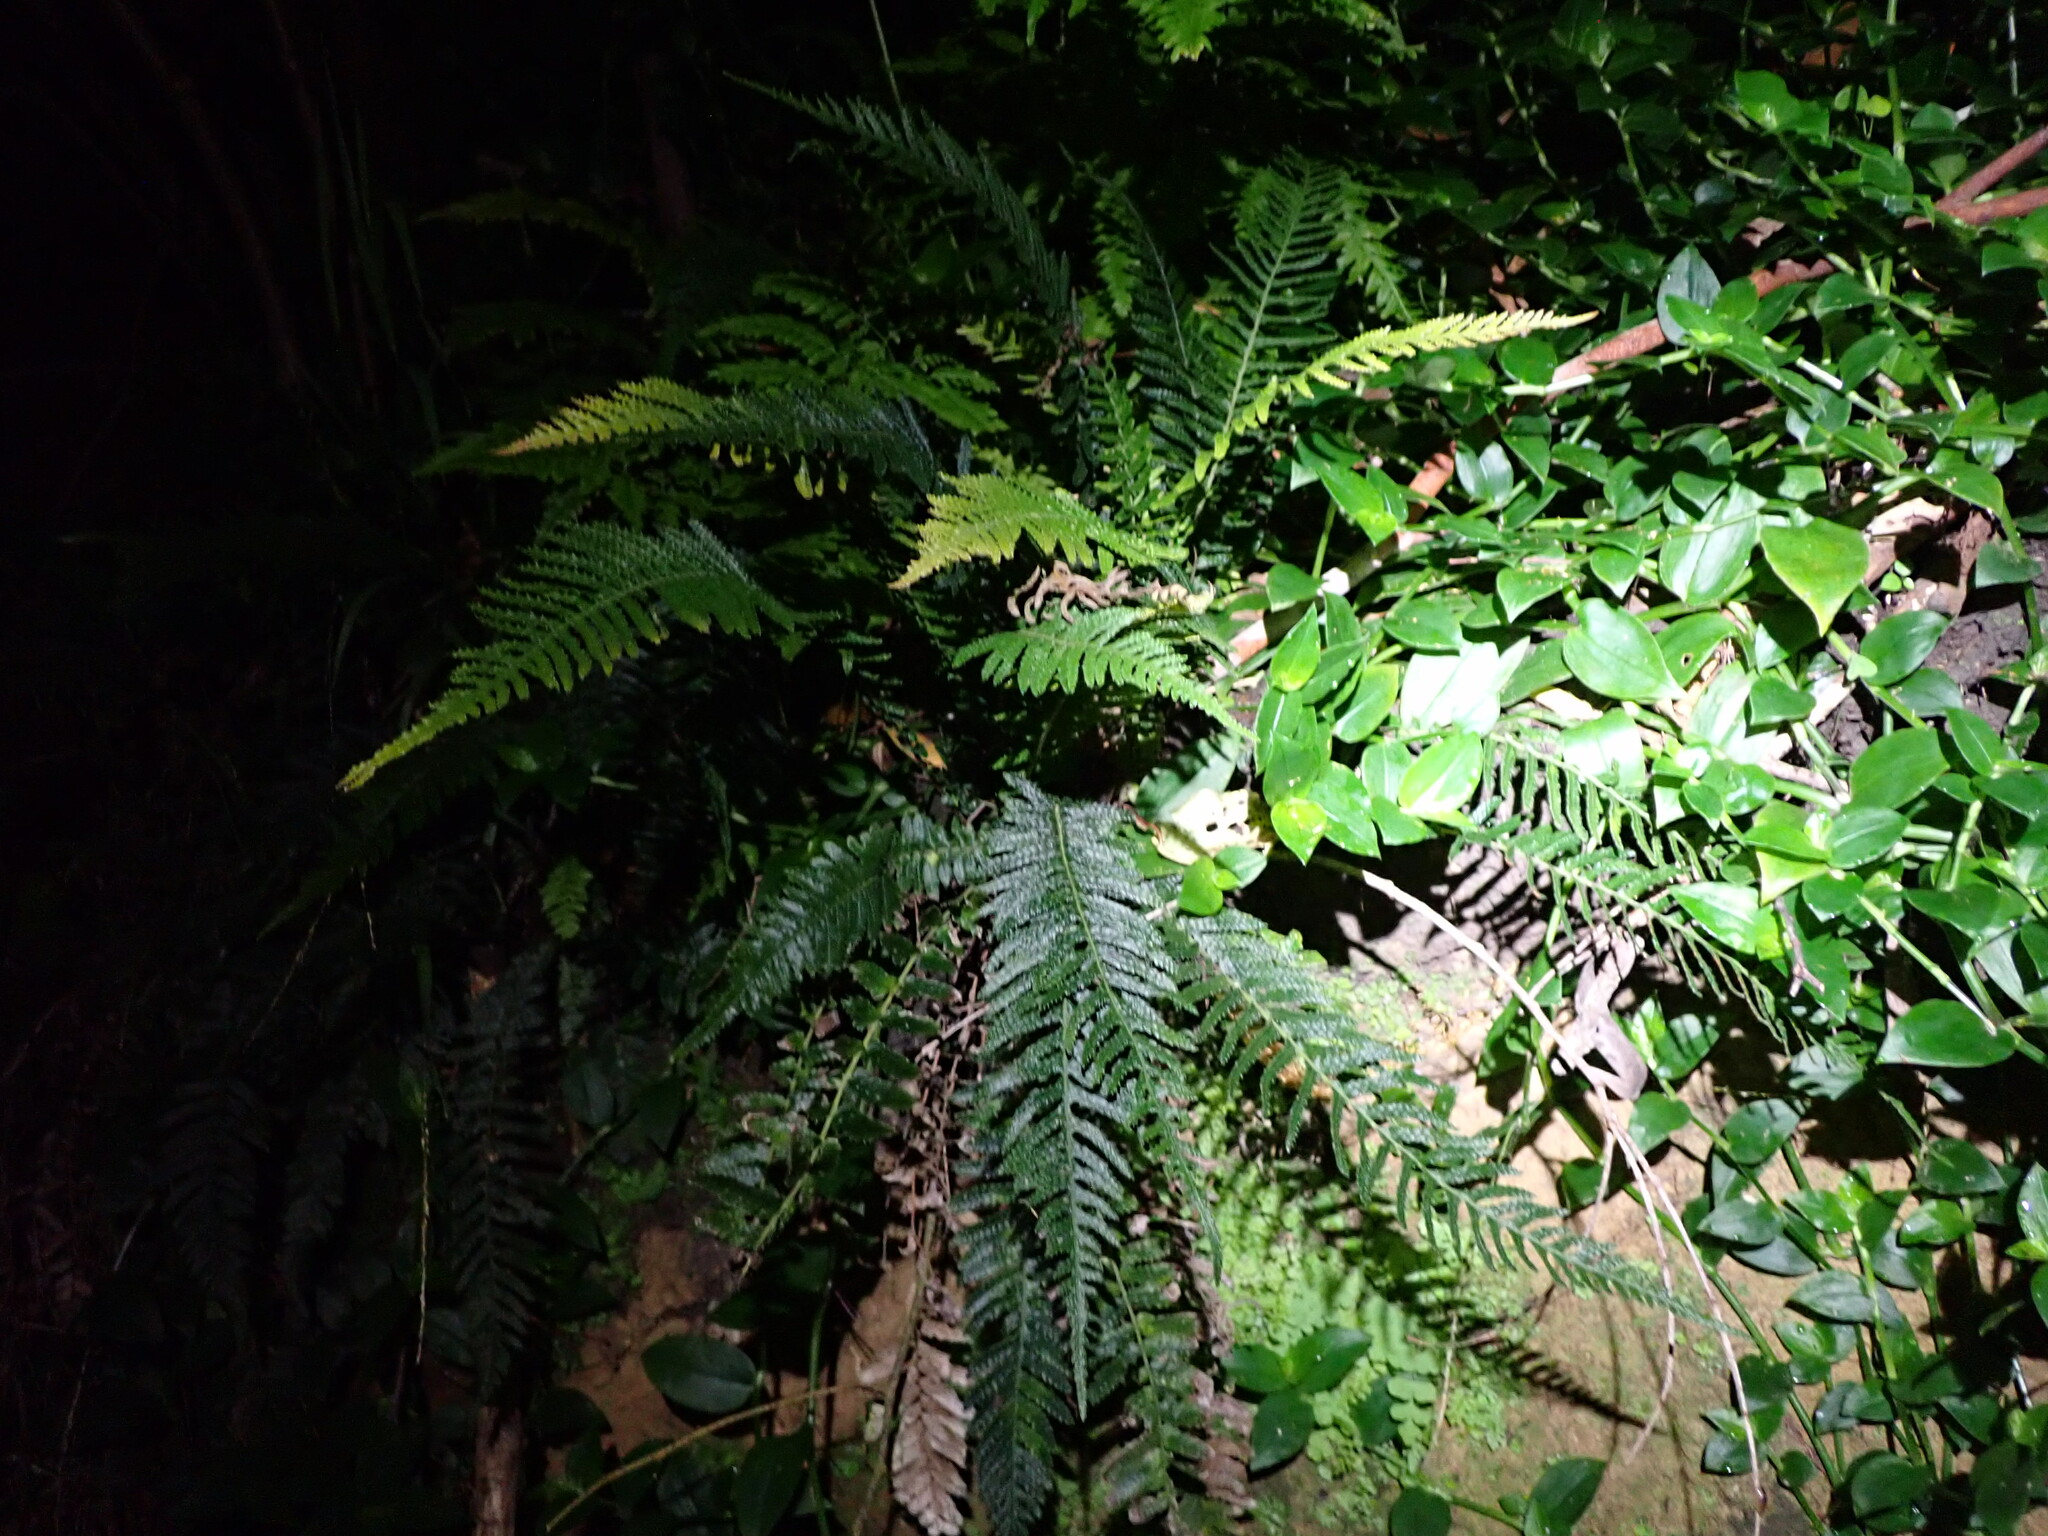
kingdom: Plantae
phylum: Tracheophyta
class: Polypodiopsida
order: Polypodiales
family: Blechnaceae
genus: Doodia
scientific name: Doodia australis
